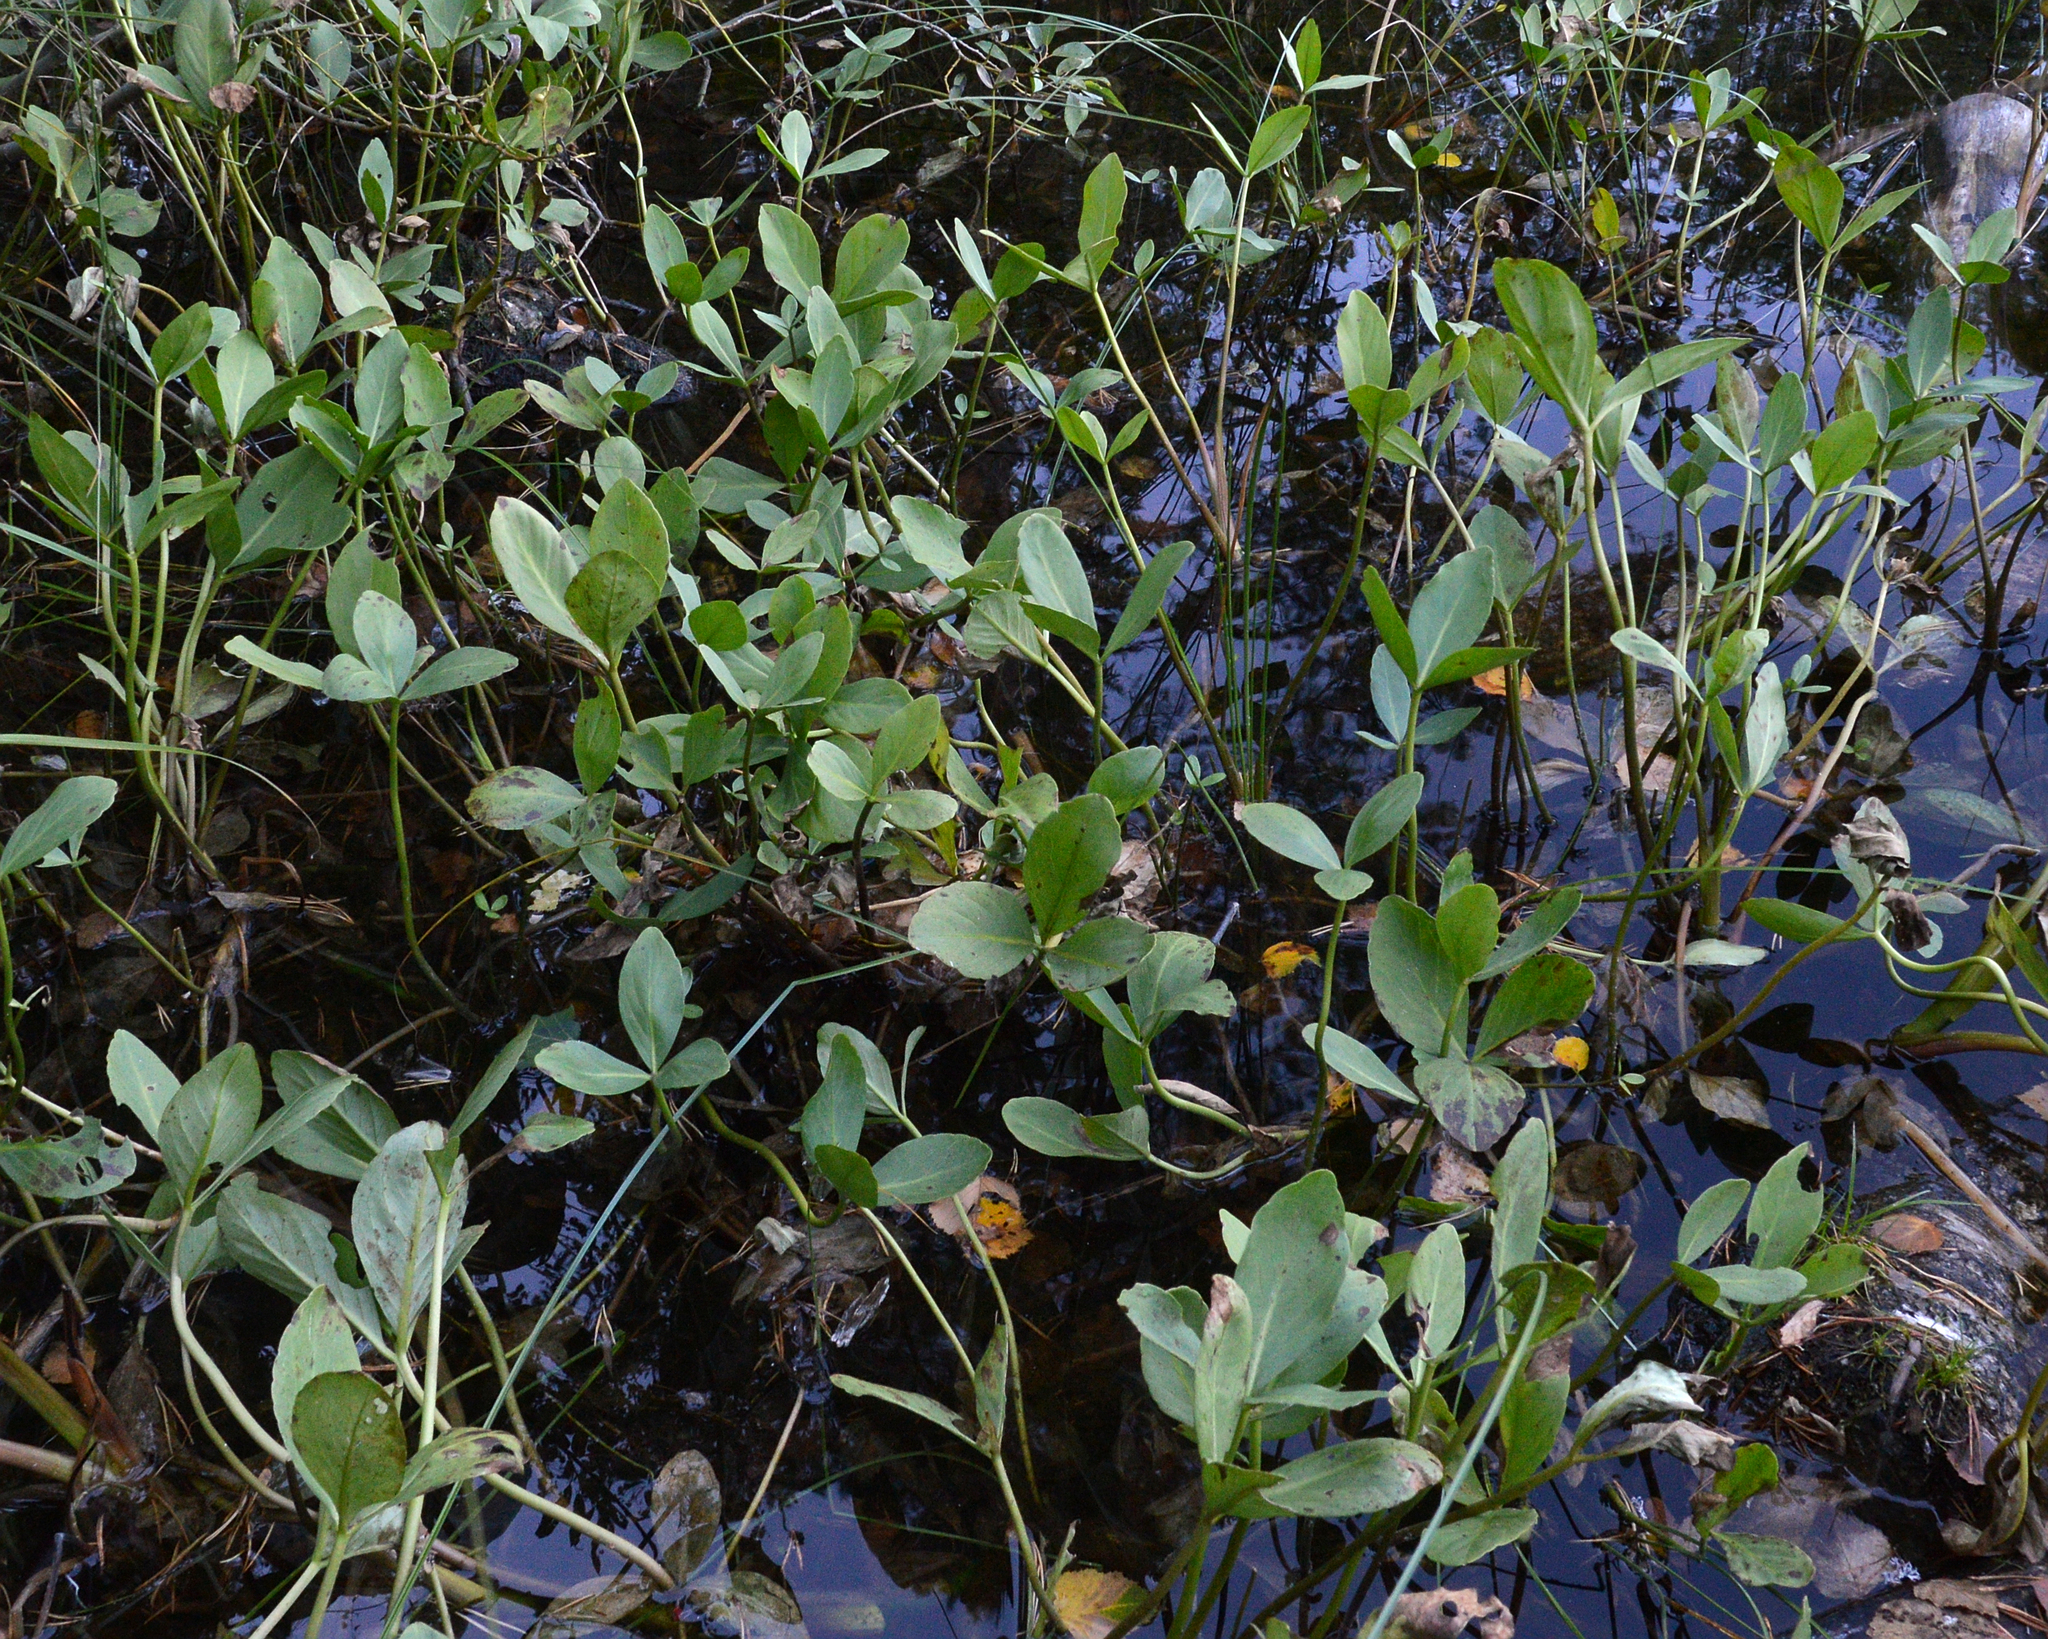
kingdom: Plantae
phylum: Tracheophyta
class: Magnoliopsida
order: Asterales
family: Menyanthaceae
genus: Menyanthes
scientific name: Menyanthes trifoliata
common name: Bogbean
